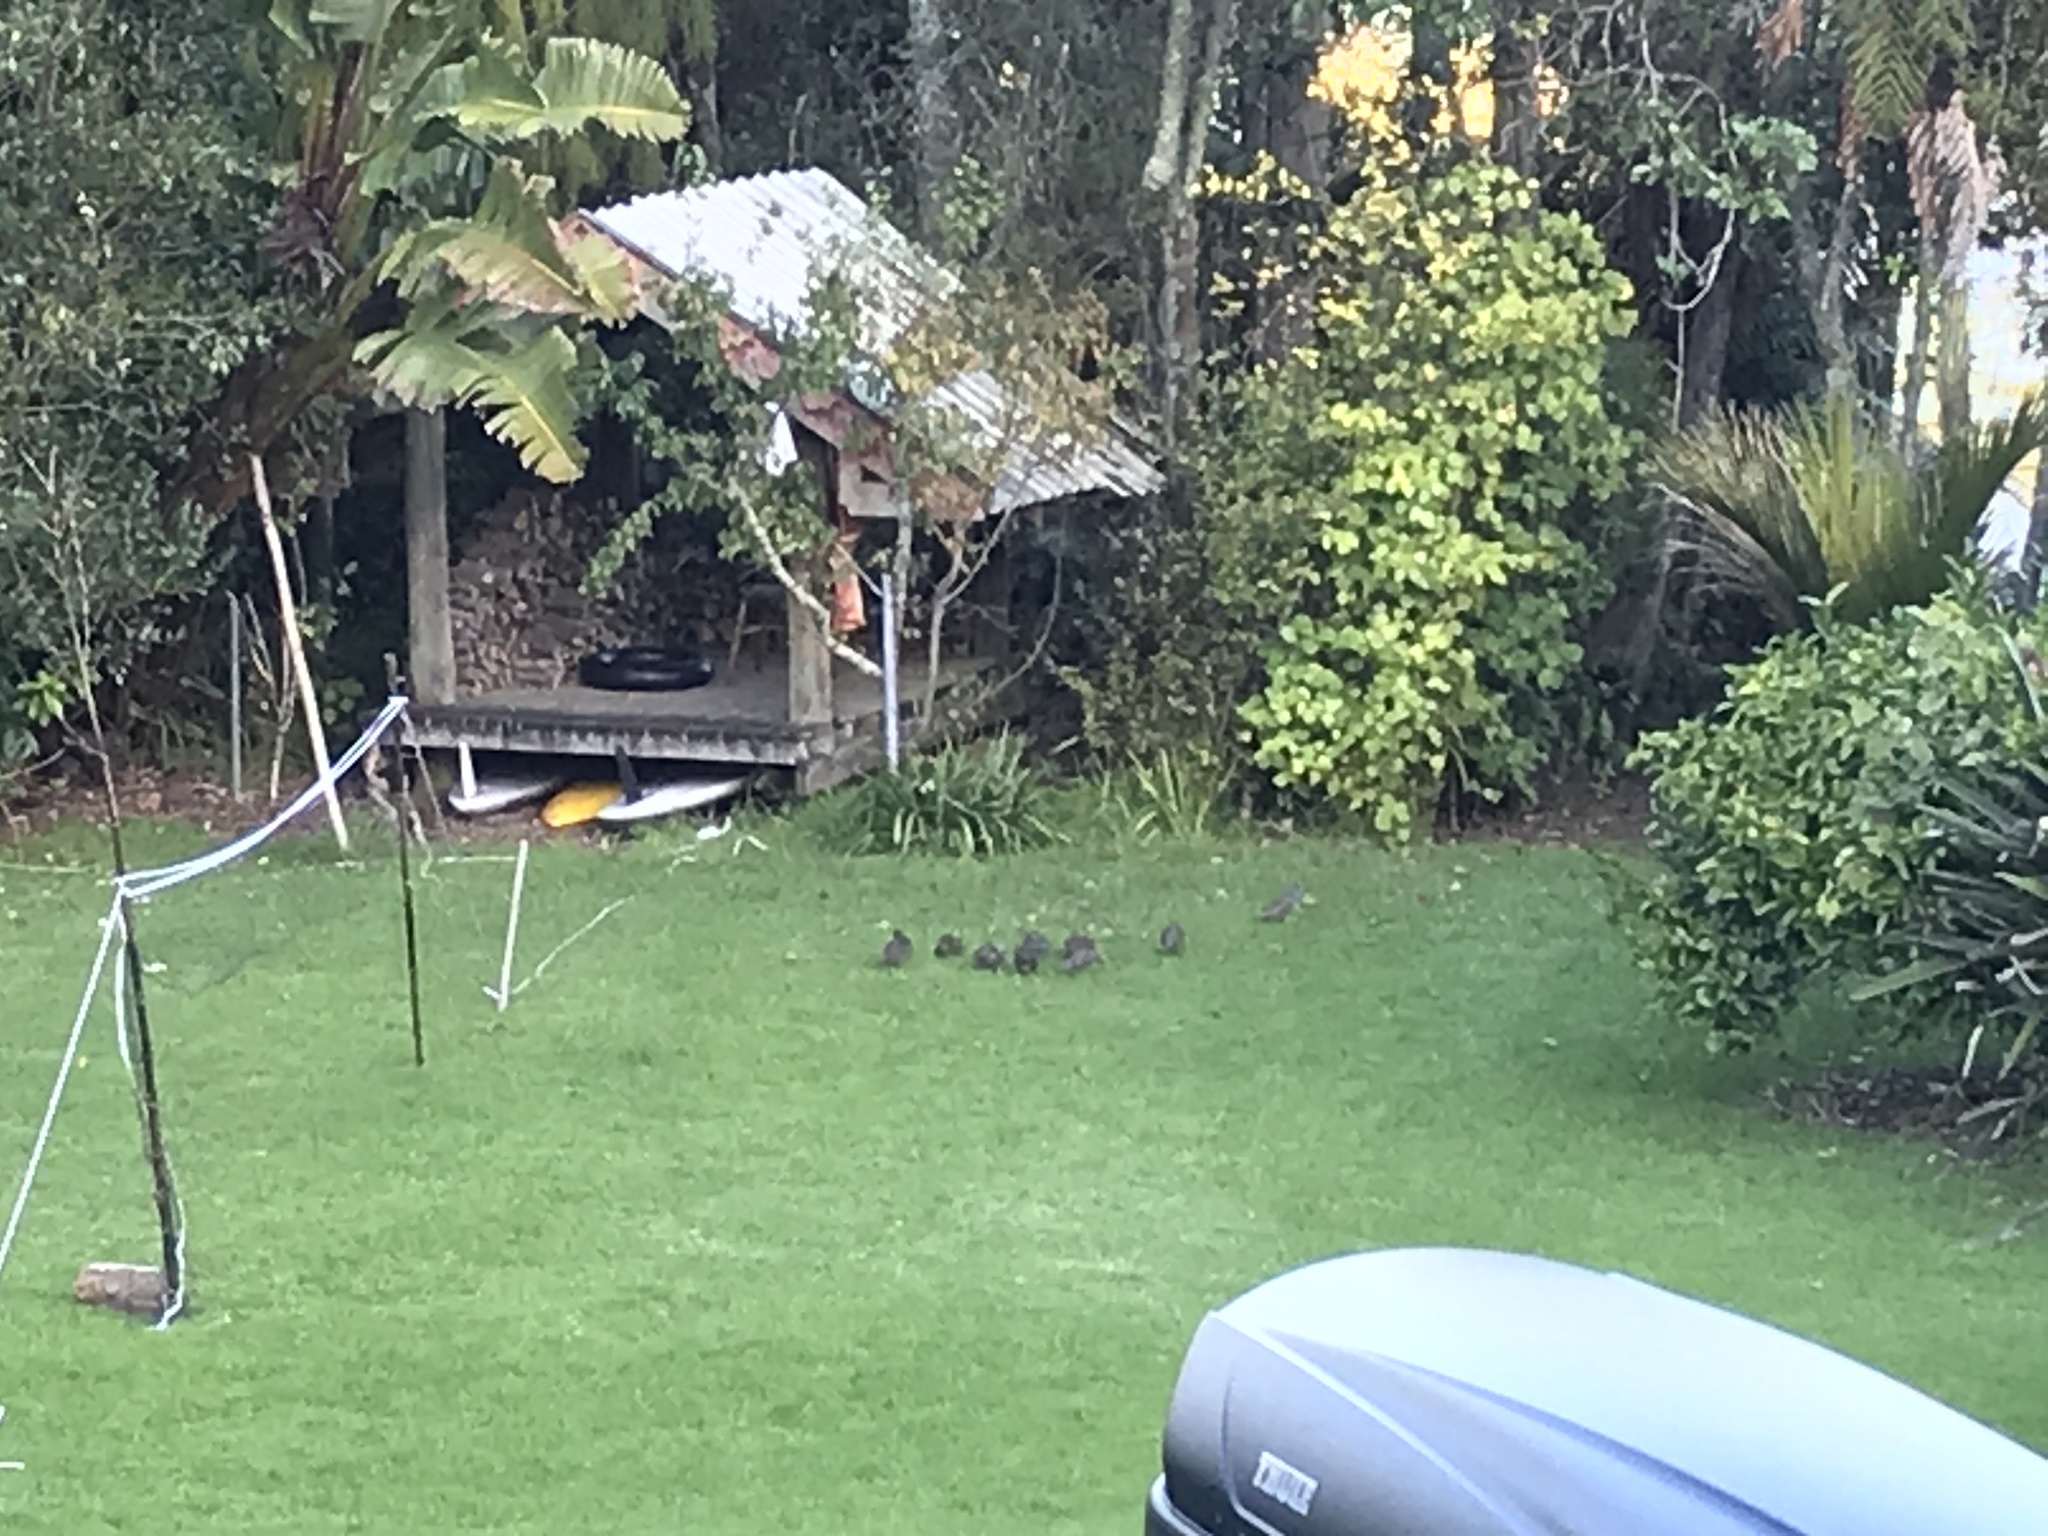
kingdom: Animalia
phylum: Chordata
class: Aves
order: Galliformes
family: Odontophoridae
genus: Callipepla
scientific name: Callipepla californica
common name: California quail
